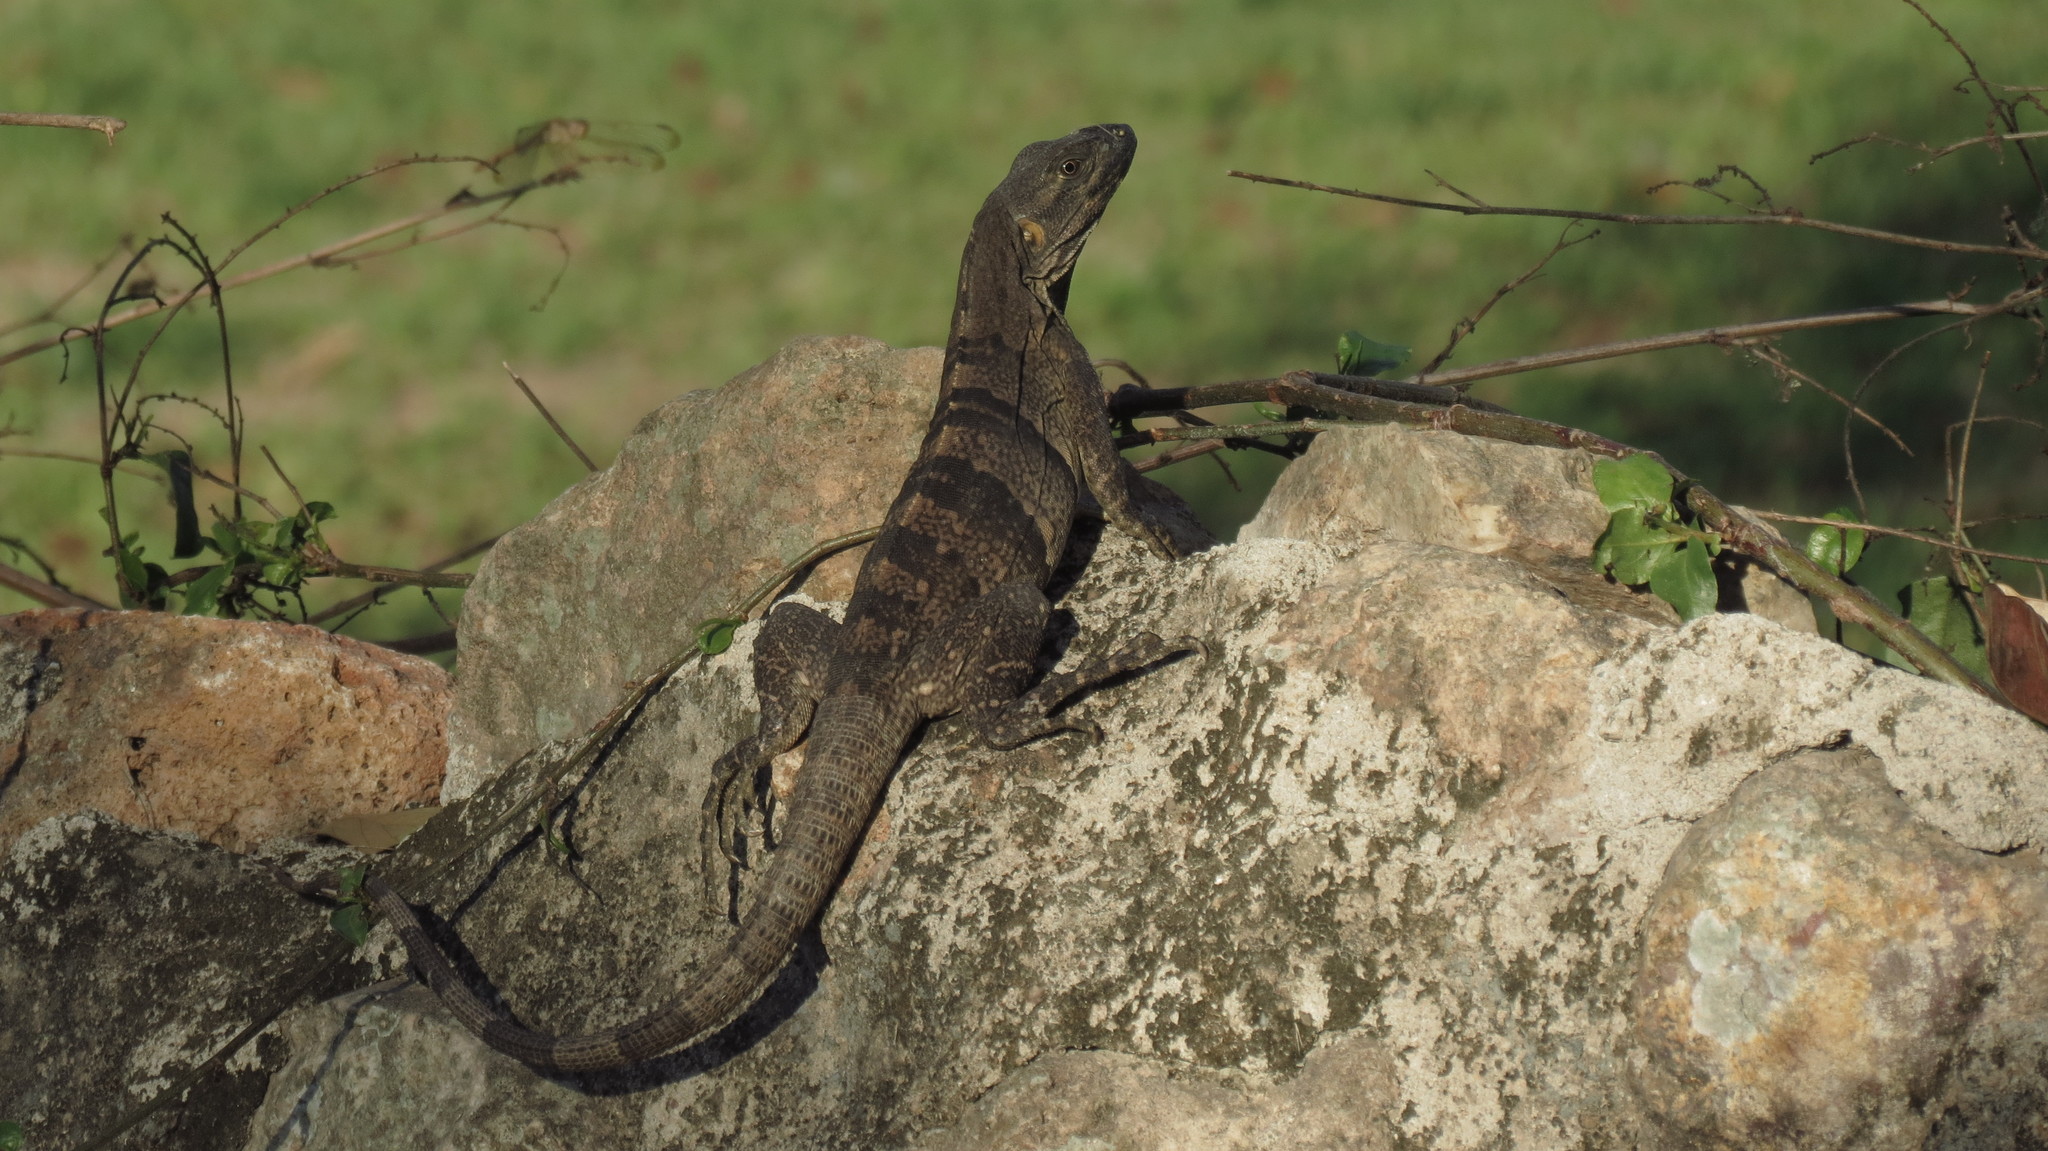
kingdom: Animalia
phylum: Chordata
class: Squamata
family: Iguanidae
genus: Ctenosaura
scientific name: Ctenosaura similis
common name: Black spiny-tailed iguana
